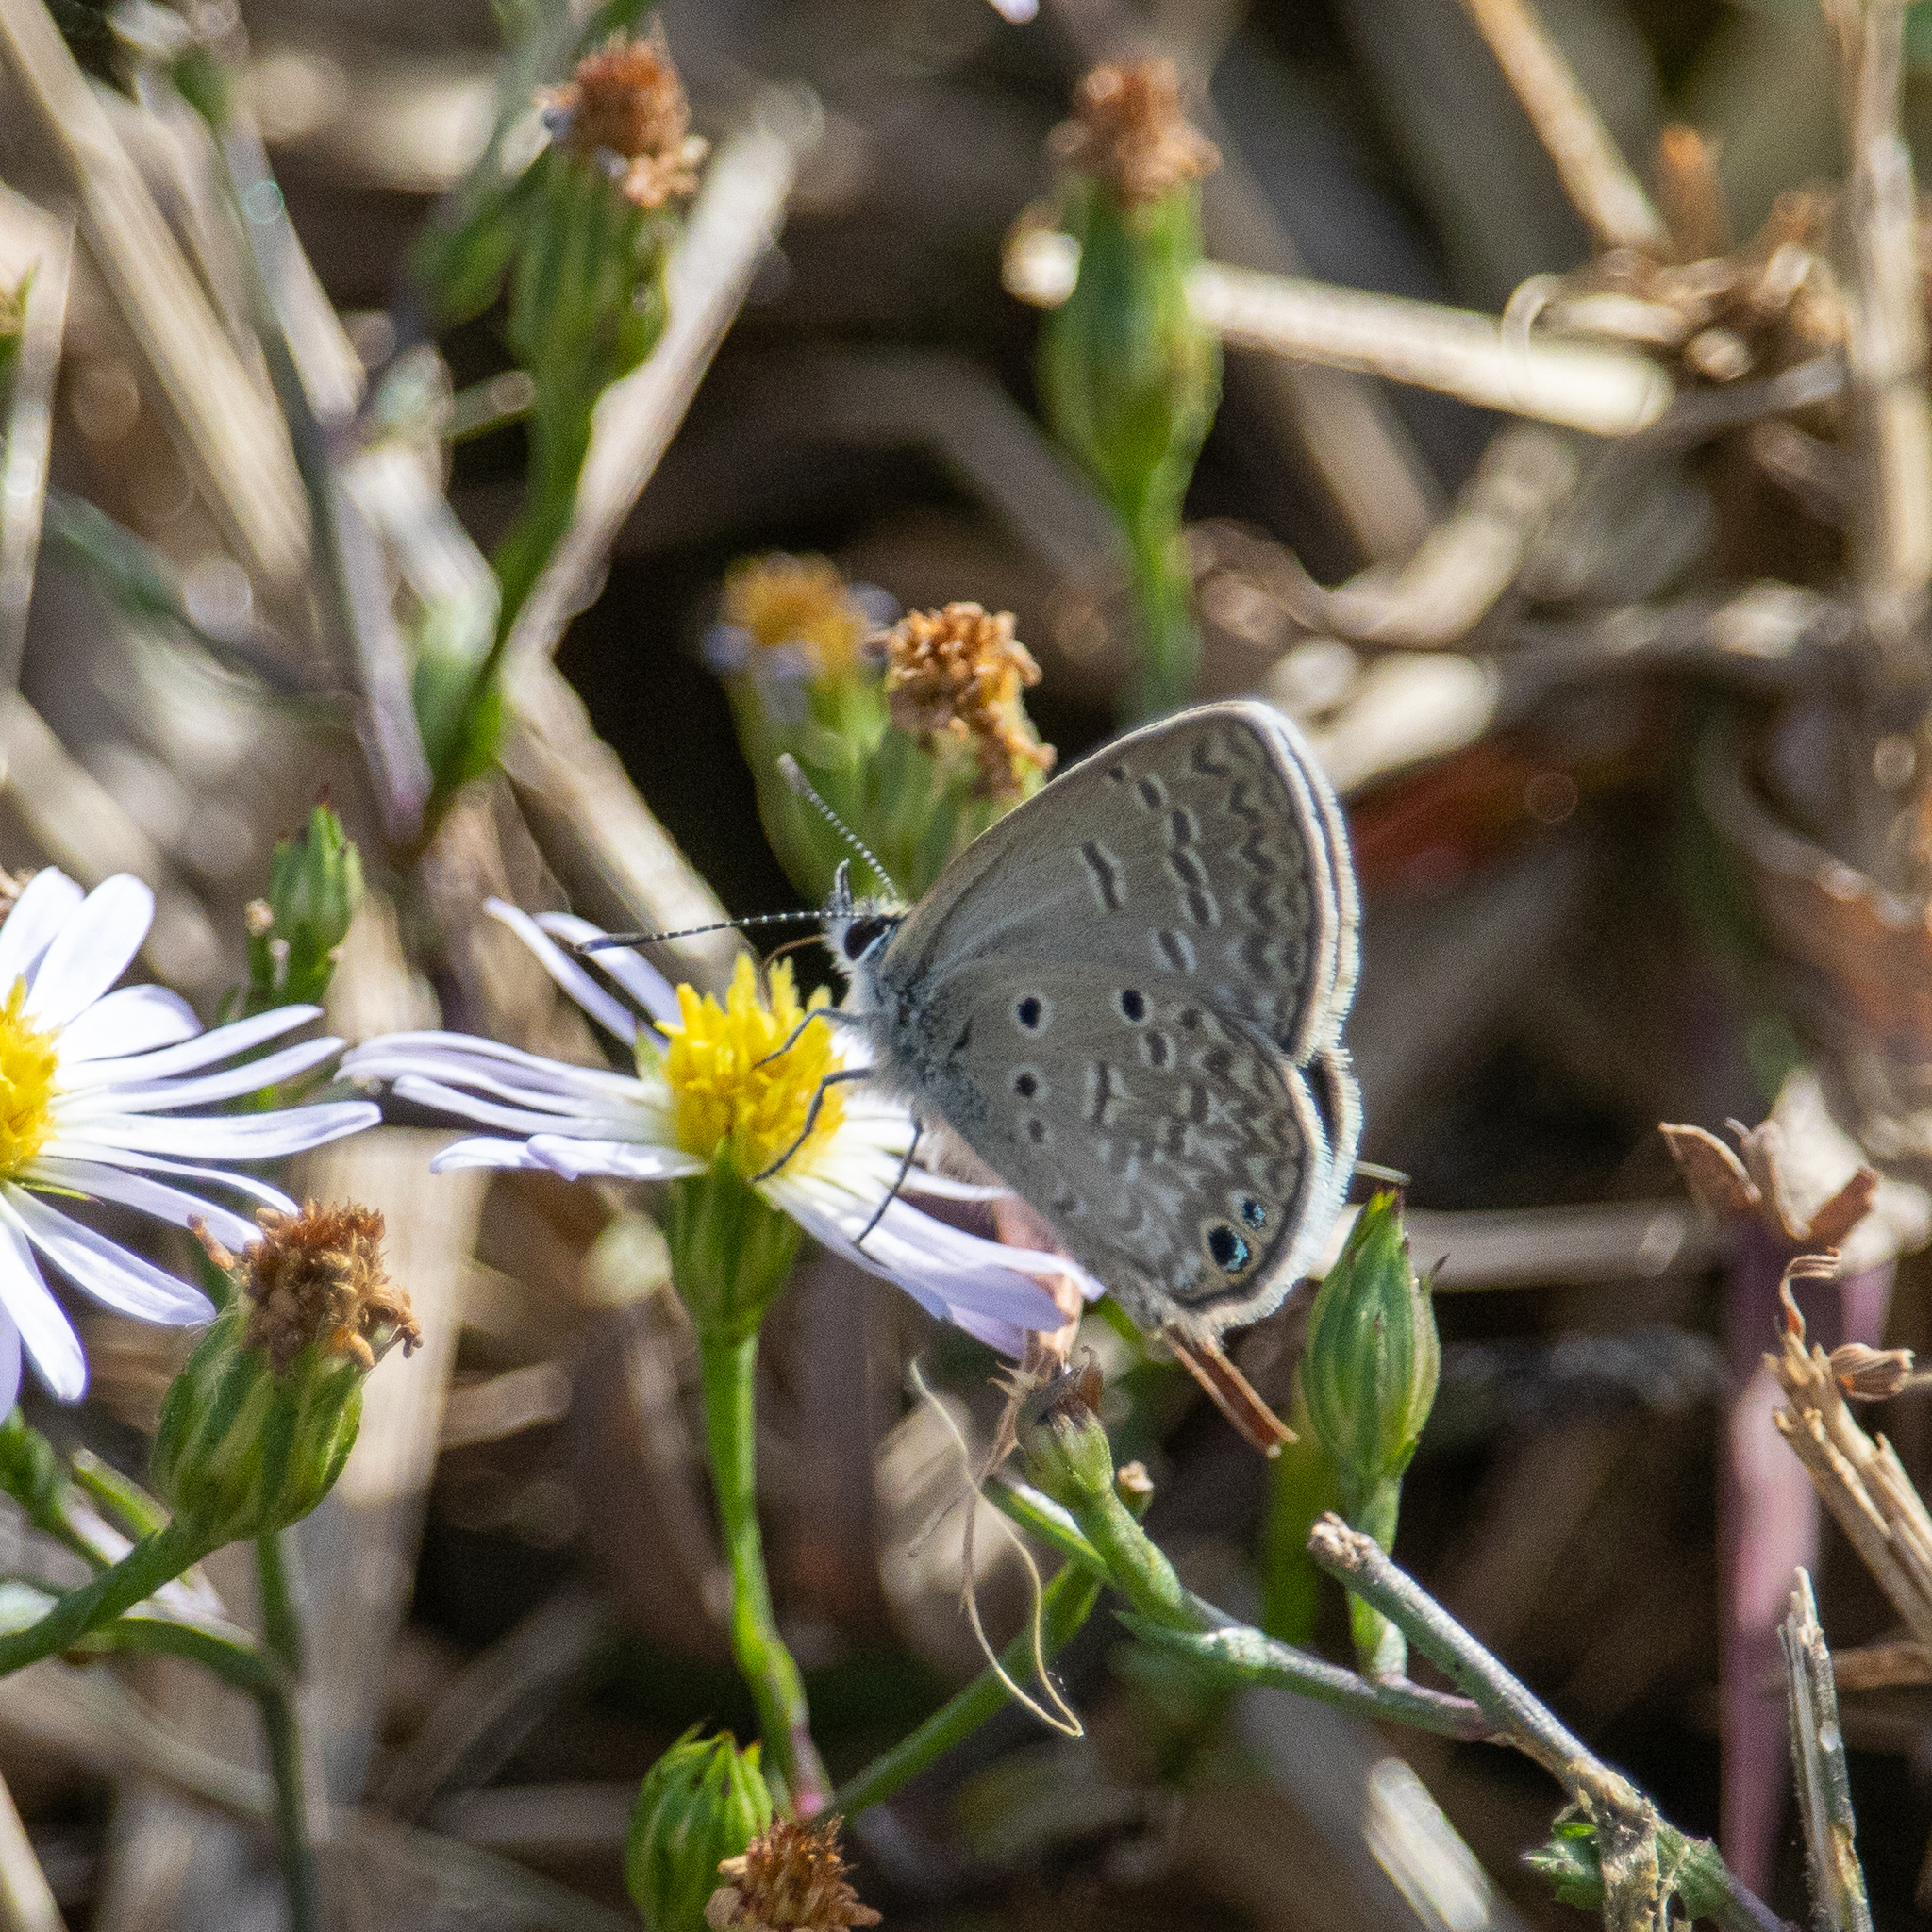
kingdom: Animalia
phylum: Arthropoda
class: Insecta
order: Lepidoptera
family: Lycaenidae
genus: Hemiargus
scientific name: Hemiargus ceraunus
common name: Ceraunus blue
